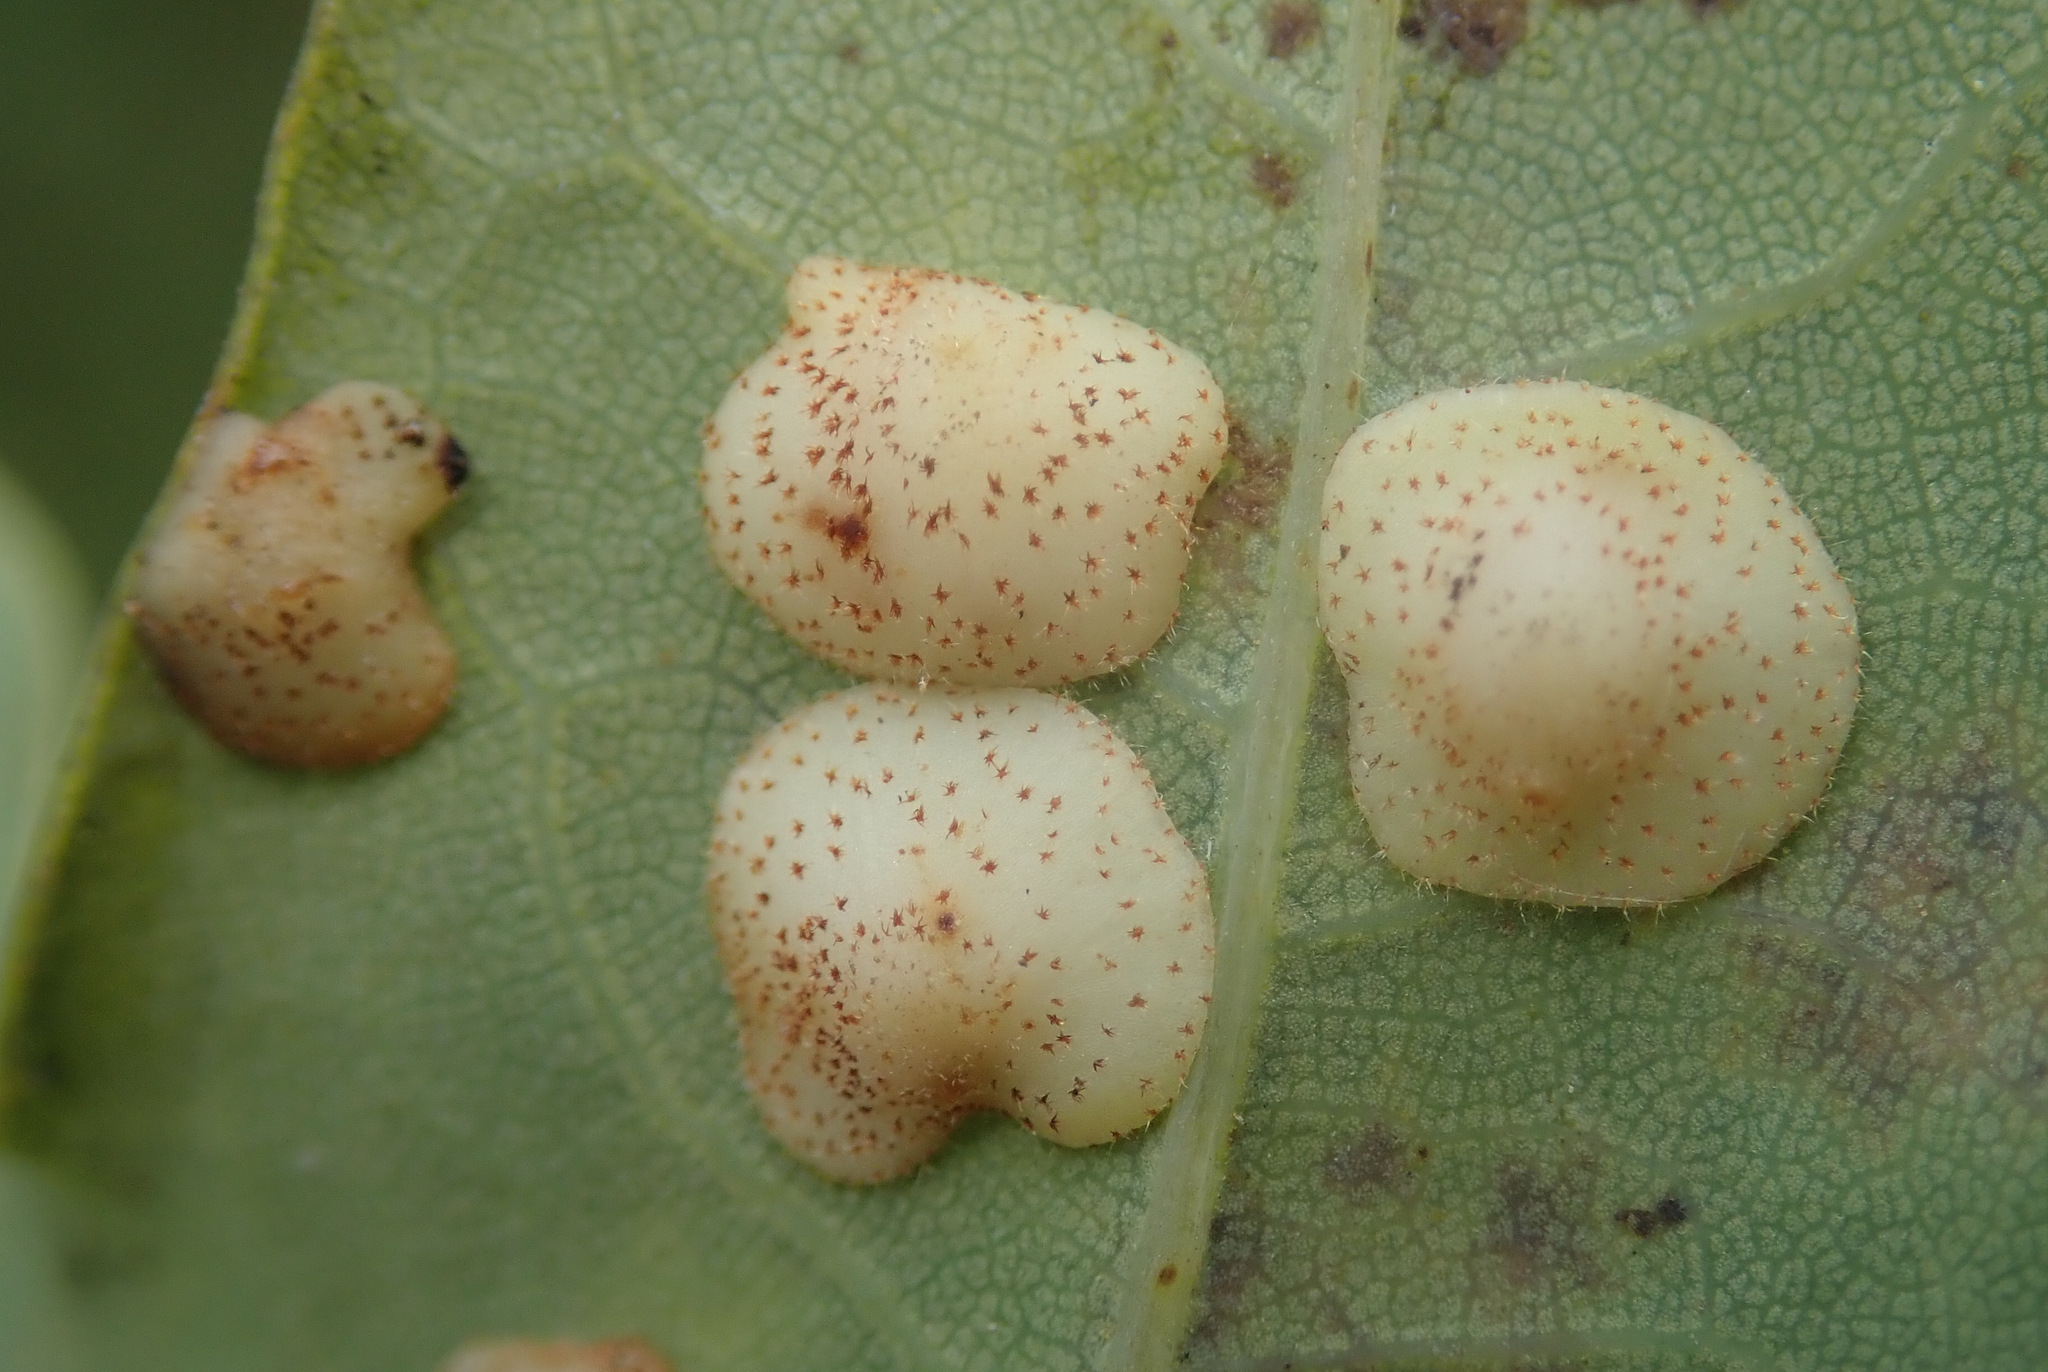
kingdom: Animalia
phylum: Arthropoda
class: Insecta
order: Hymenoptera
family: Cynipidae
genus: Neuroterus
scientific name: Neuroterus quercusbaccarum
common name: Common spangle gall
